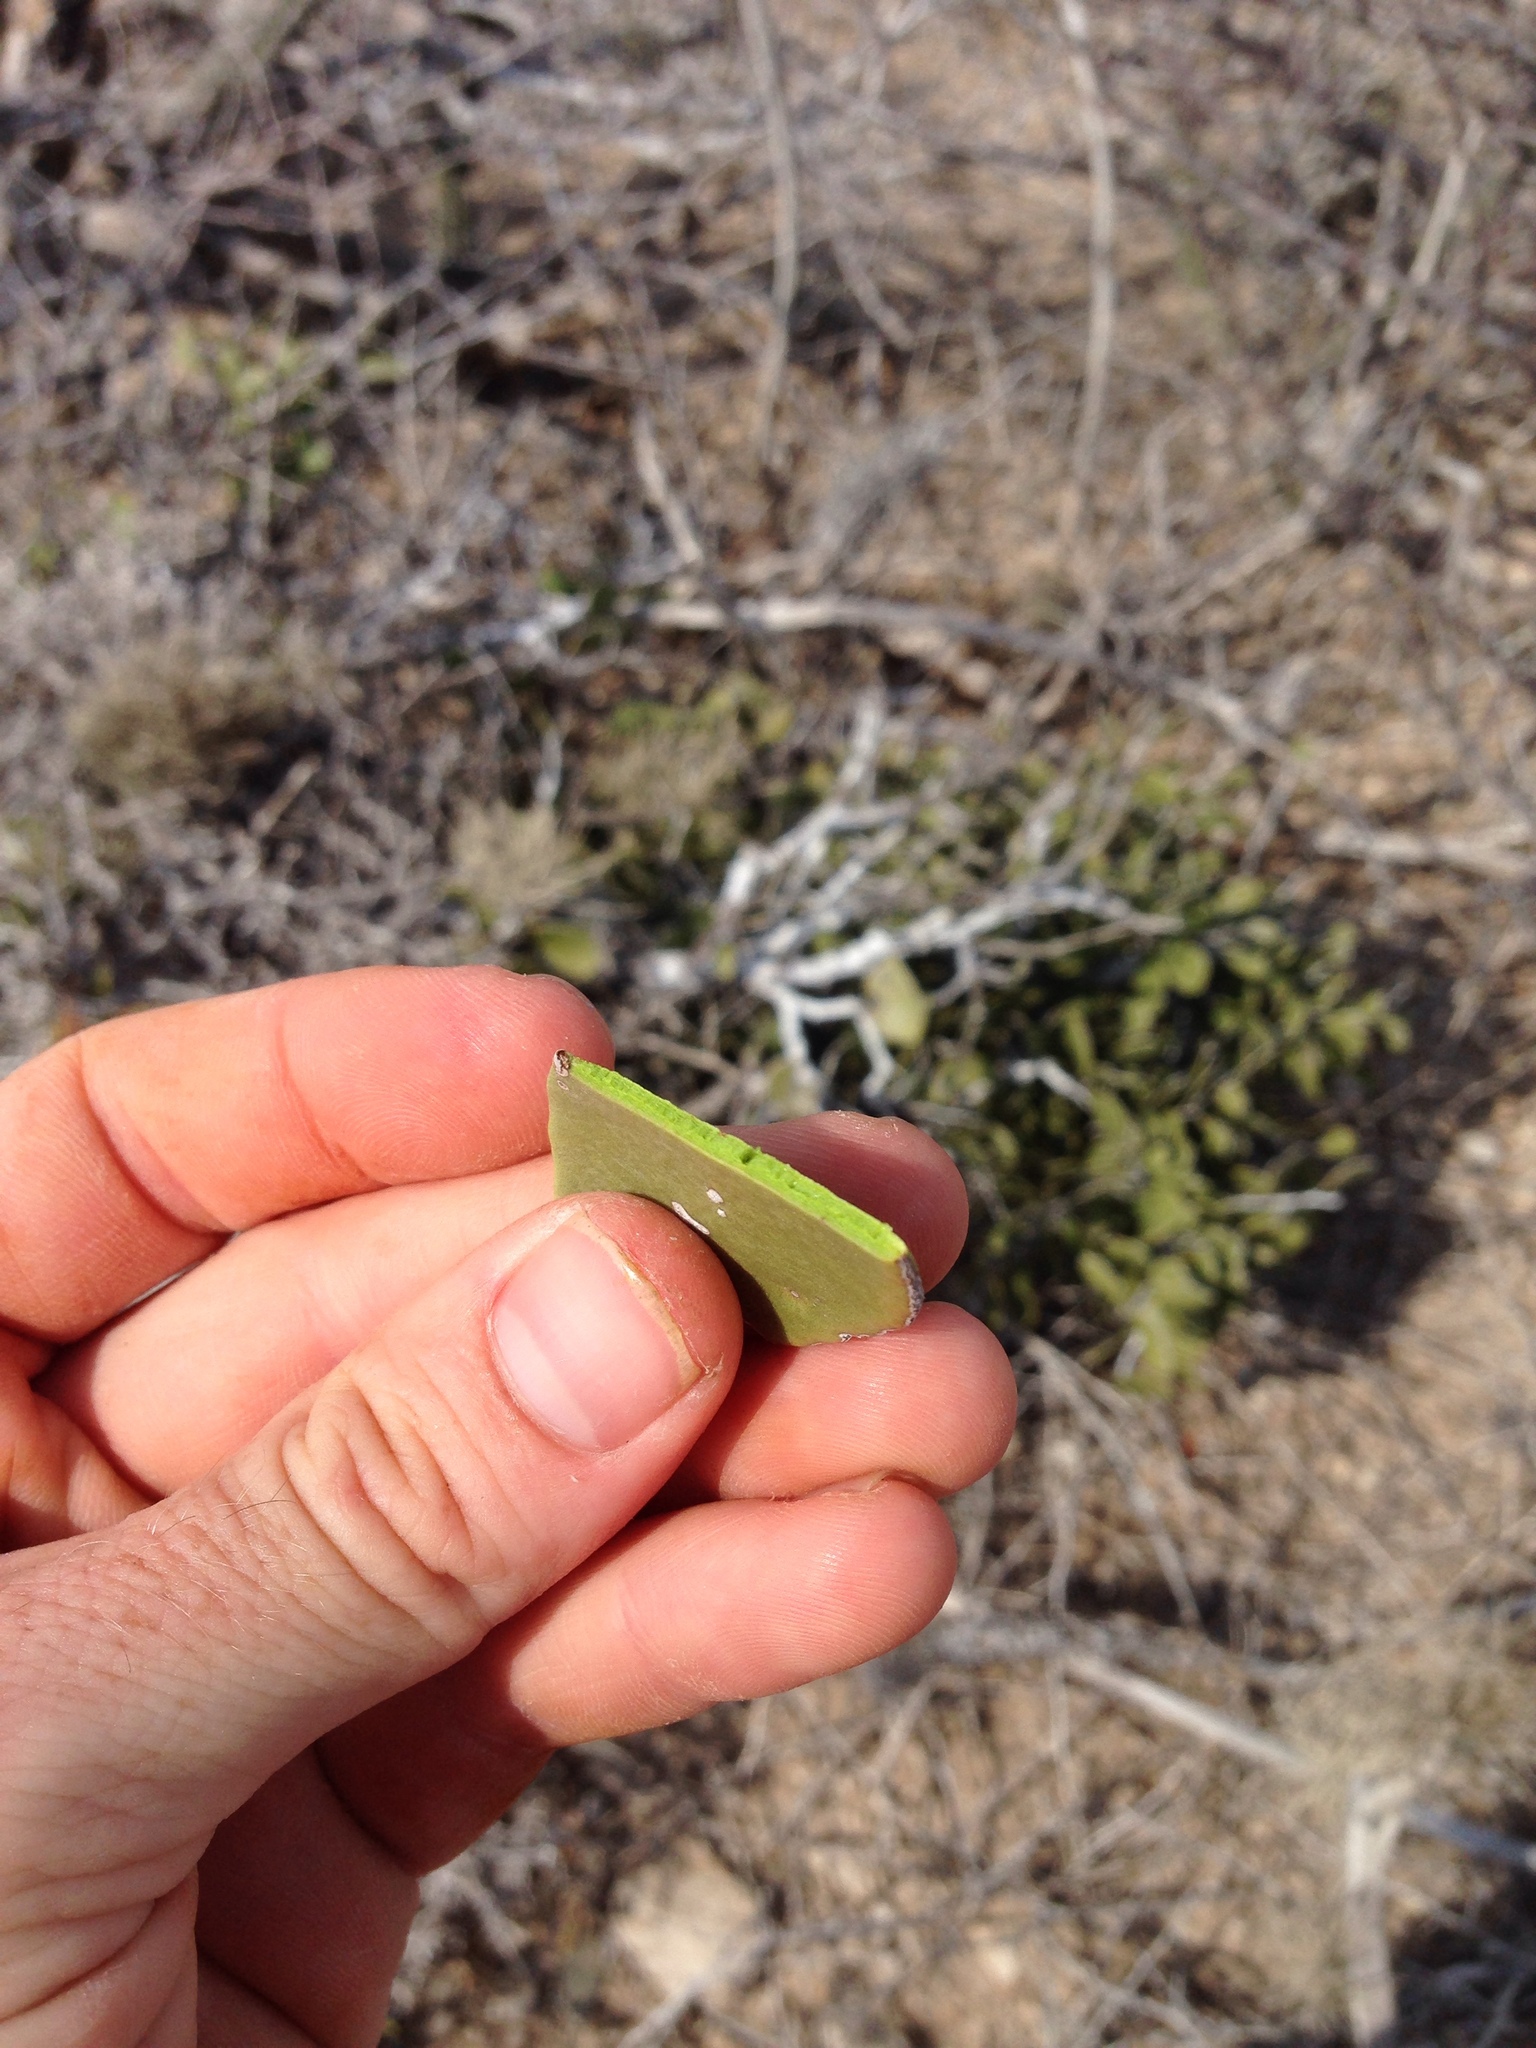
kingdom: Plantae
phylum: Tracheophyta
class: Magnoliopsida
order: Celastrales
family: Celastraceae
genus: Tricerma
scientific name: Tricerma phyllanthoides
